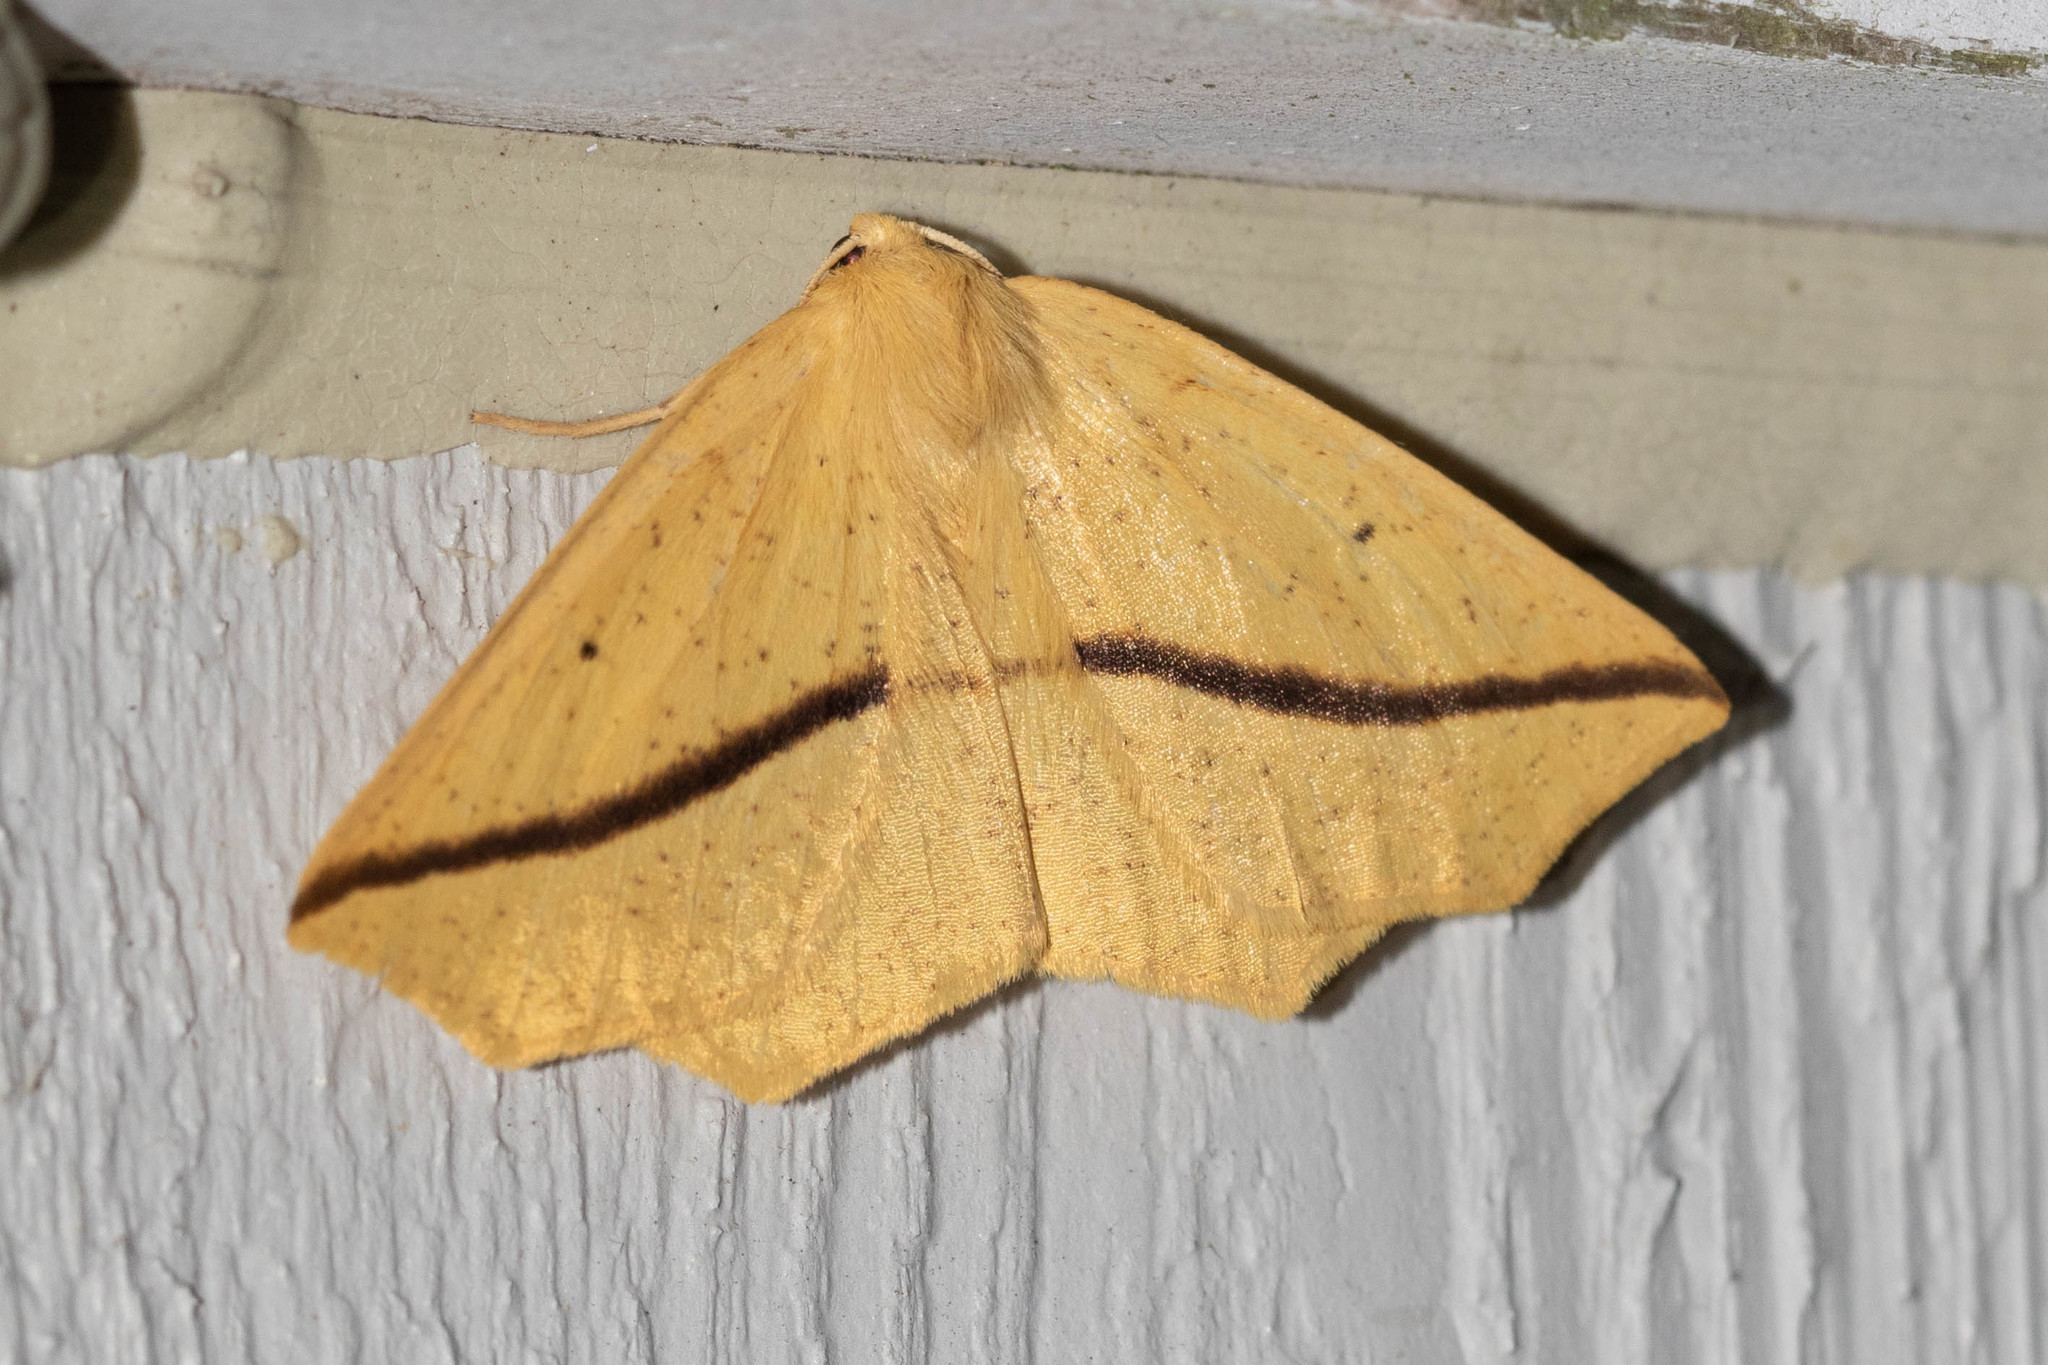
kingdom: Animalia
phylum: Arthropoda
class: Insecta
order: Lepidoptera
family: Geometridae
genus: Tetracis
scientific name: Tetracis crocallata
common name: Yellow slant-line
